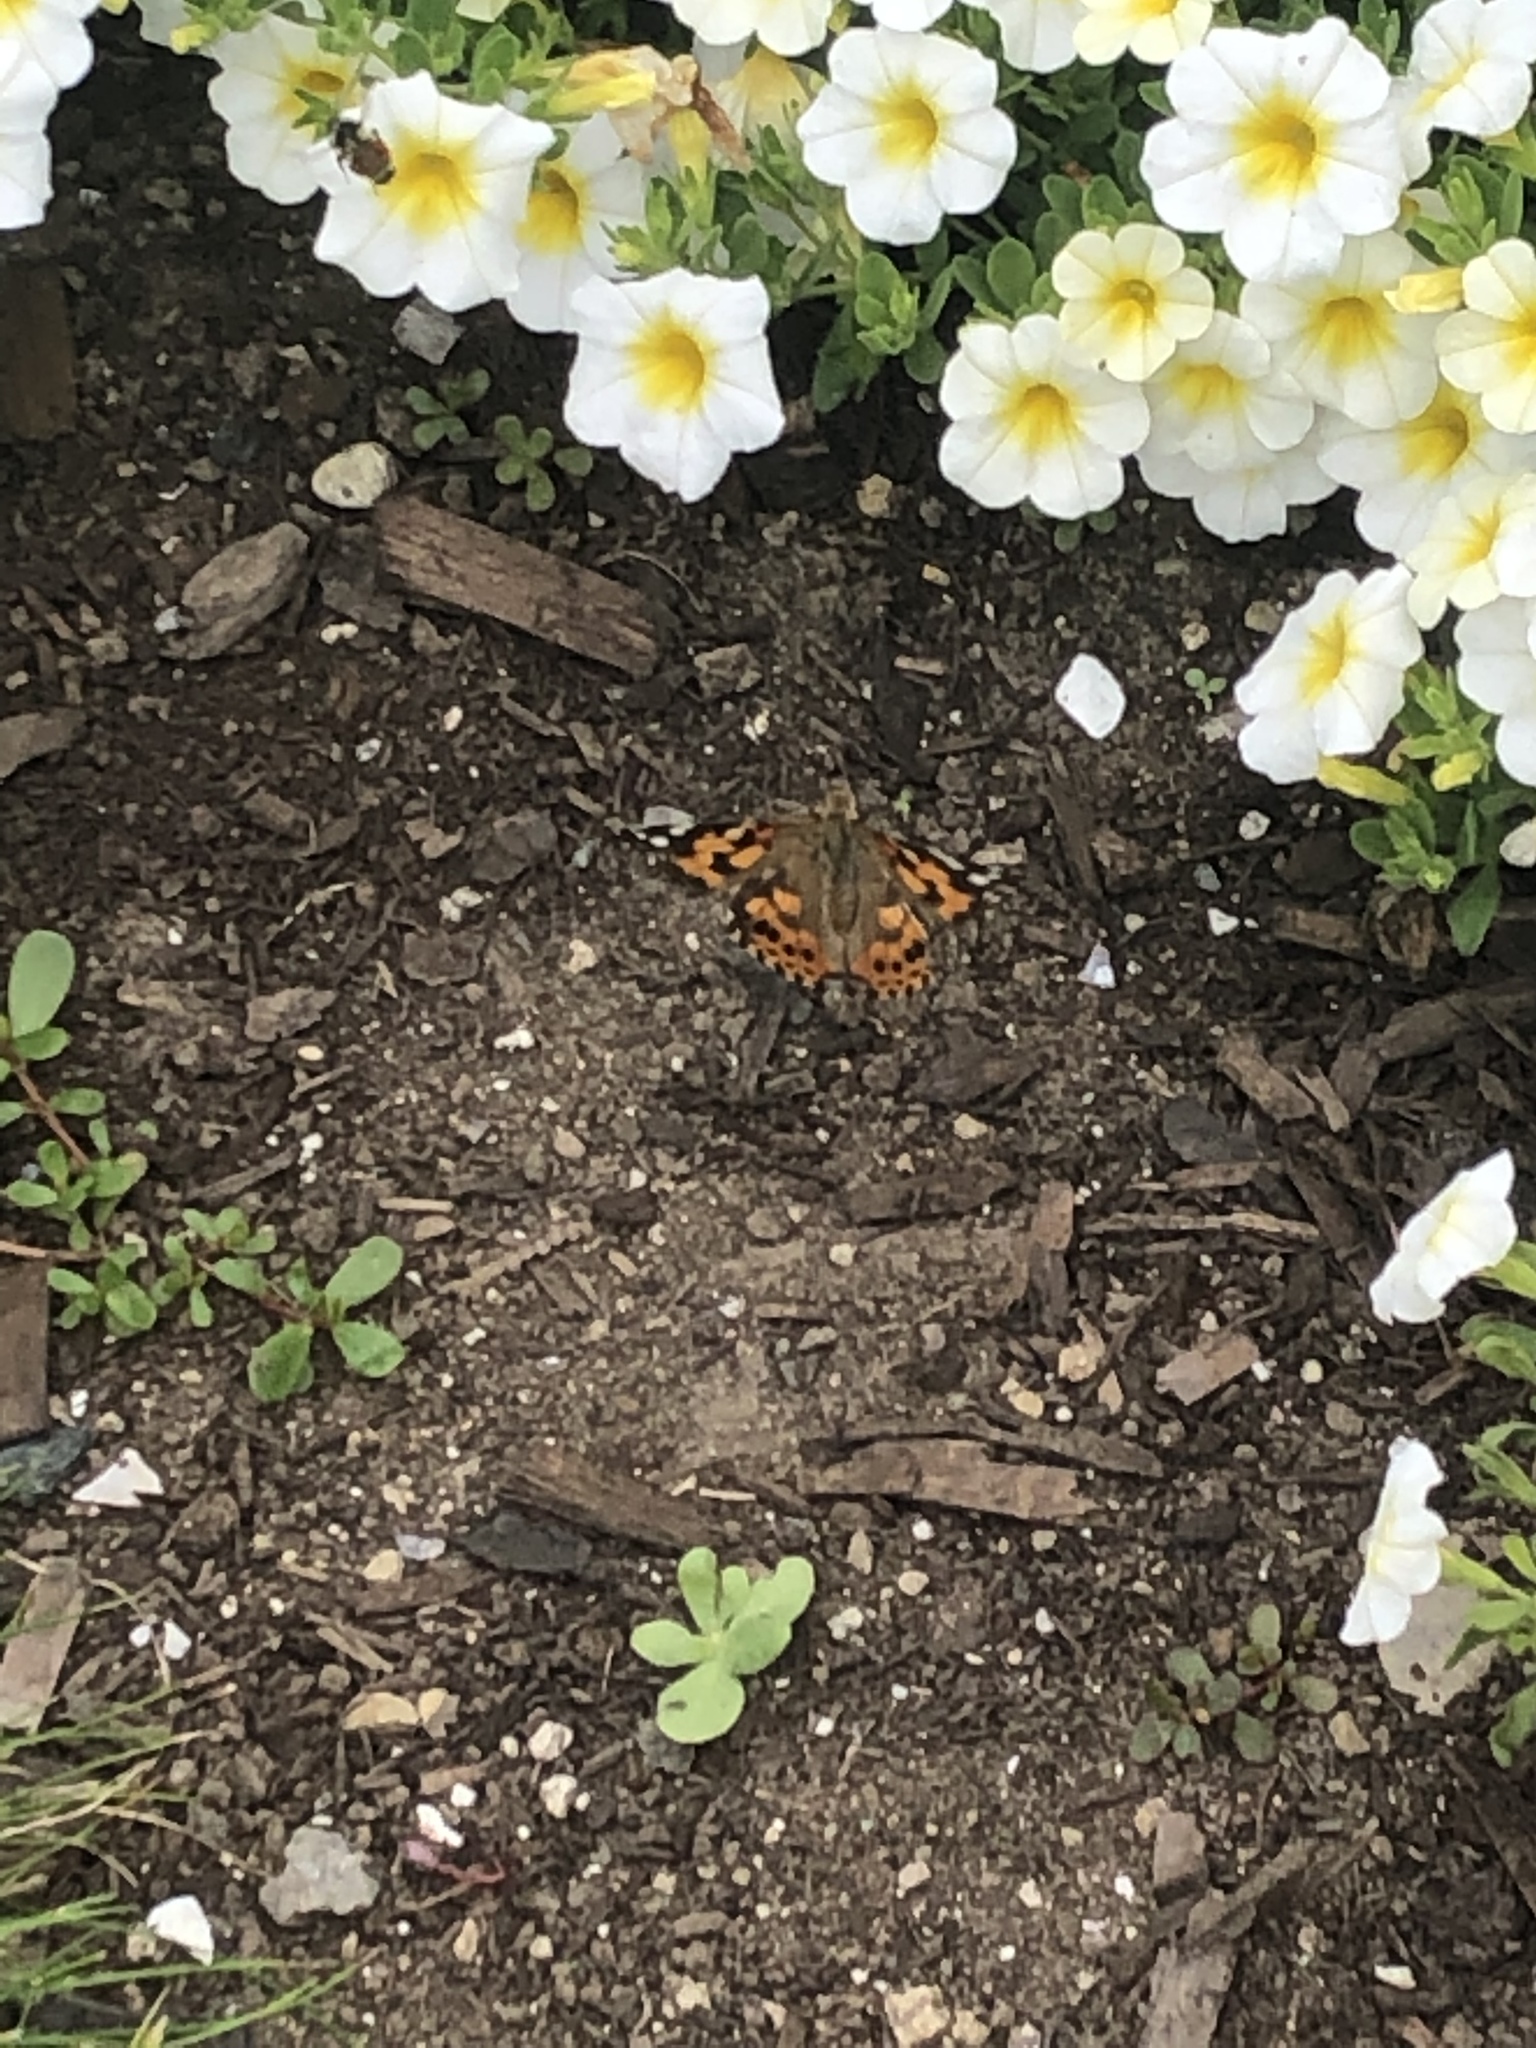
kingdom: Animalia
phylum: Arthropoda
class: Insecta
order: Lepidoptera
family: Nymphalidae
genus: Vanessa
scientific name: Vanessa cardui
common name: Painted lady
